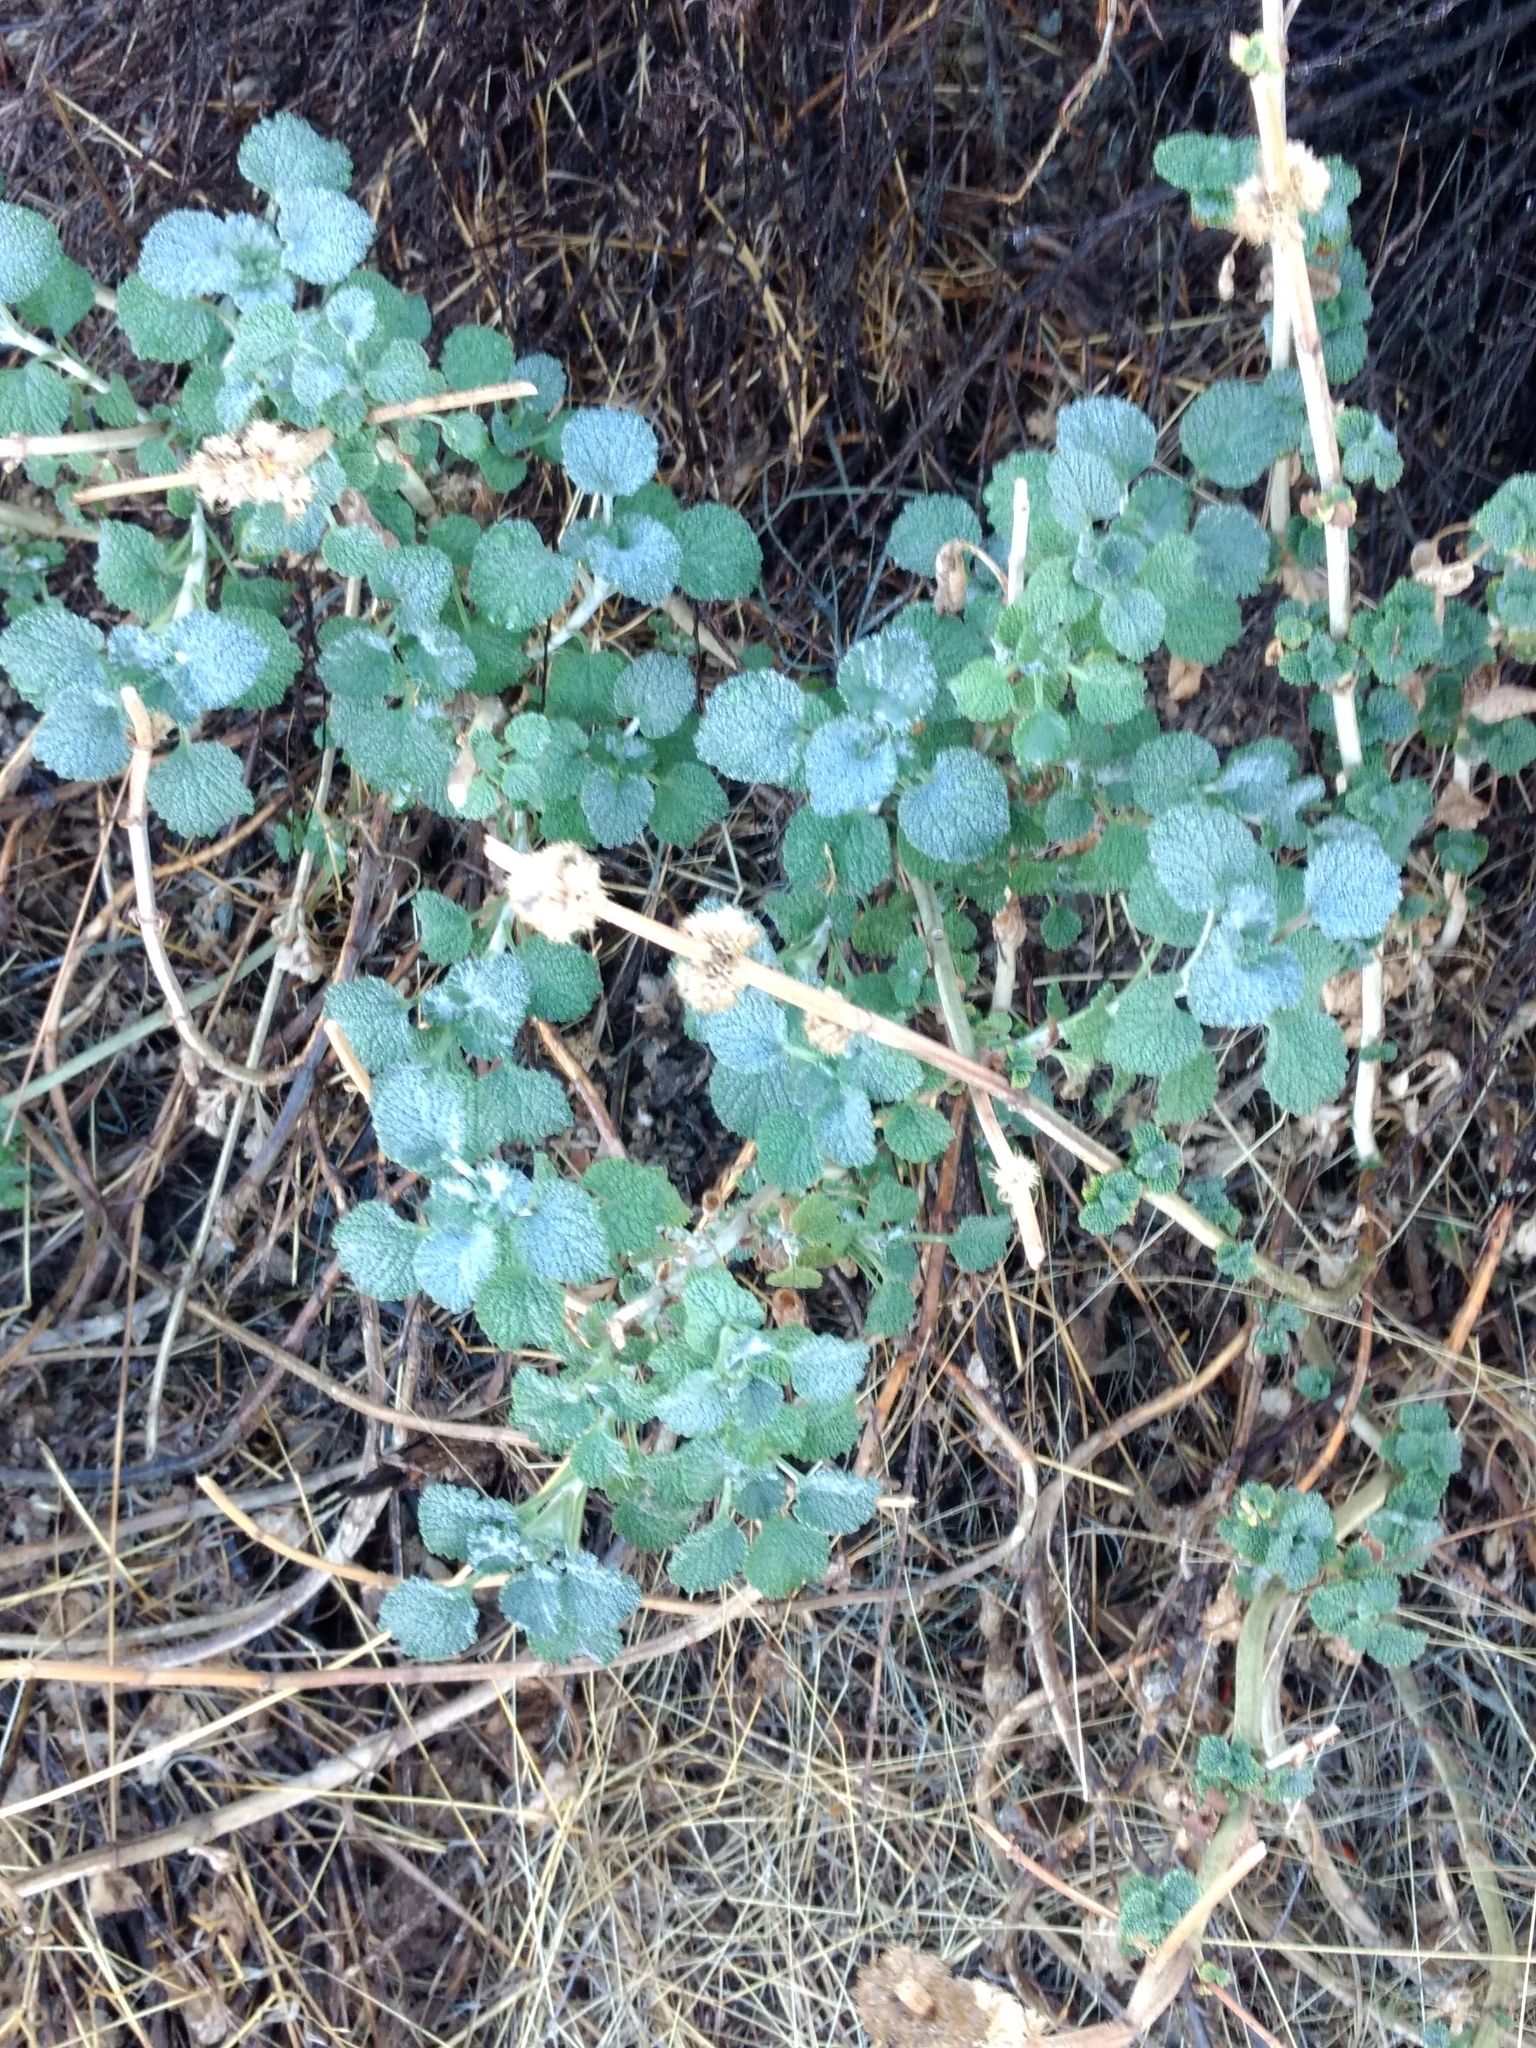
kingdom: Plantae
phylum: Tracheophyta
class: Magnoliopsida
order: Lamiales
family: Lamiaceae
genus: Marrubium
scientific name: Marrubium vulgare
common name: Horehound
